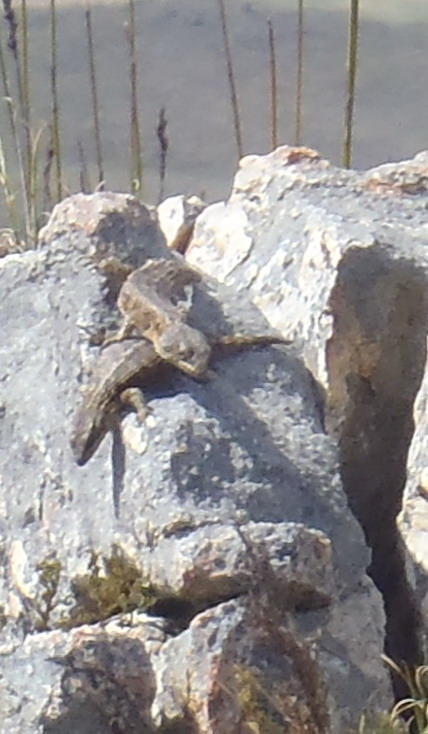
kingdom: Animalia
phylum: Chordata
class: Squamata
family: Cordylidae
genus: Cordylus
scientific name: Cordylus cordylus
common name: Cape girdled lizard
